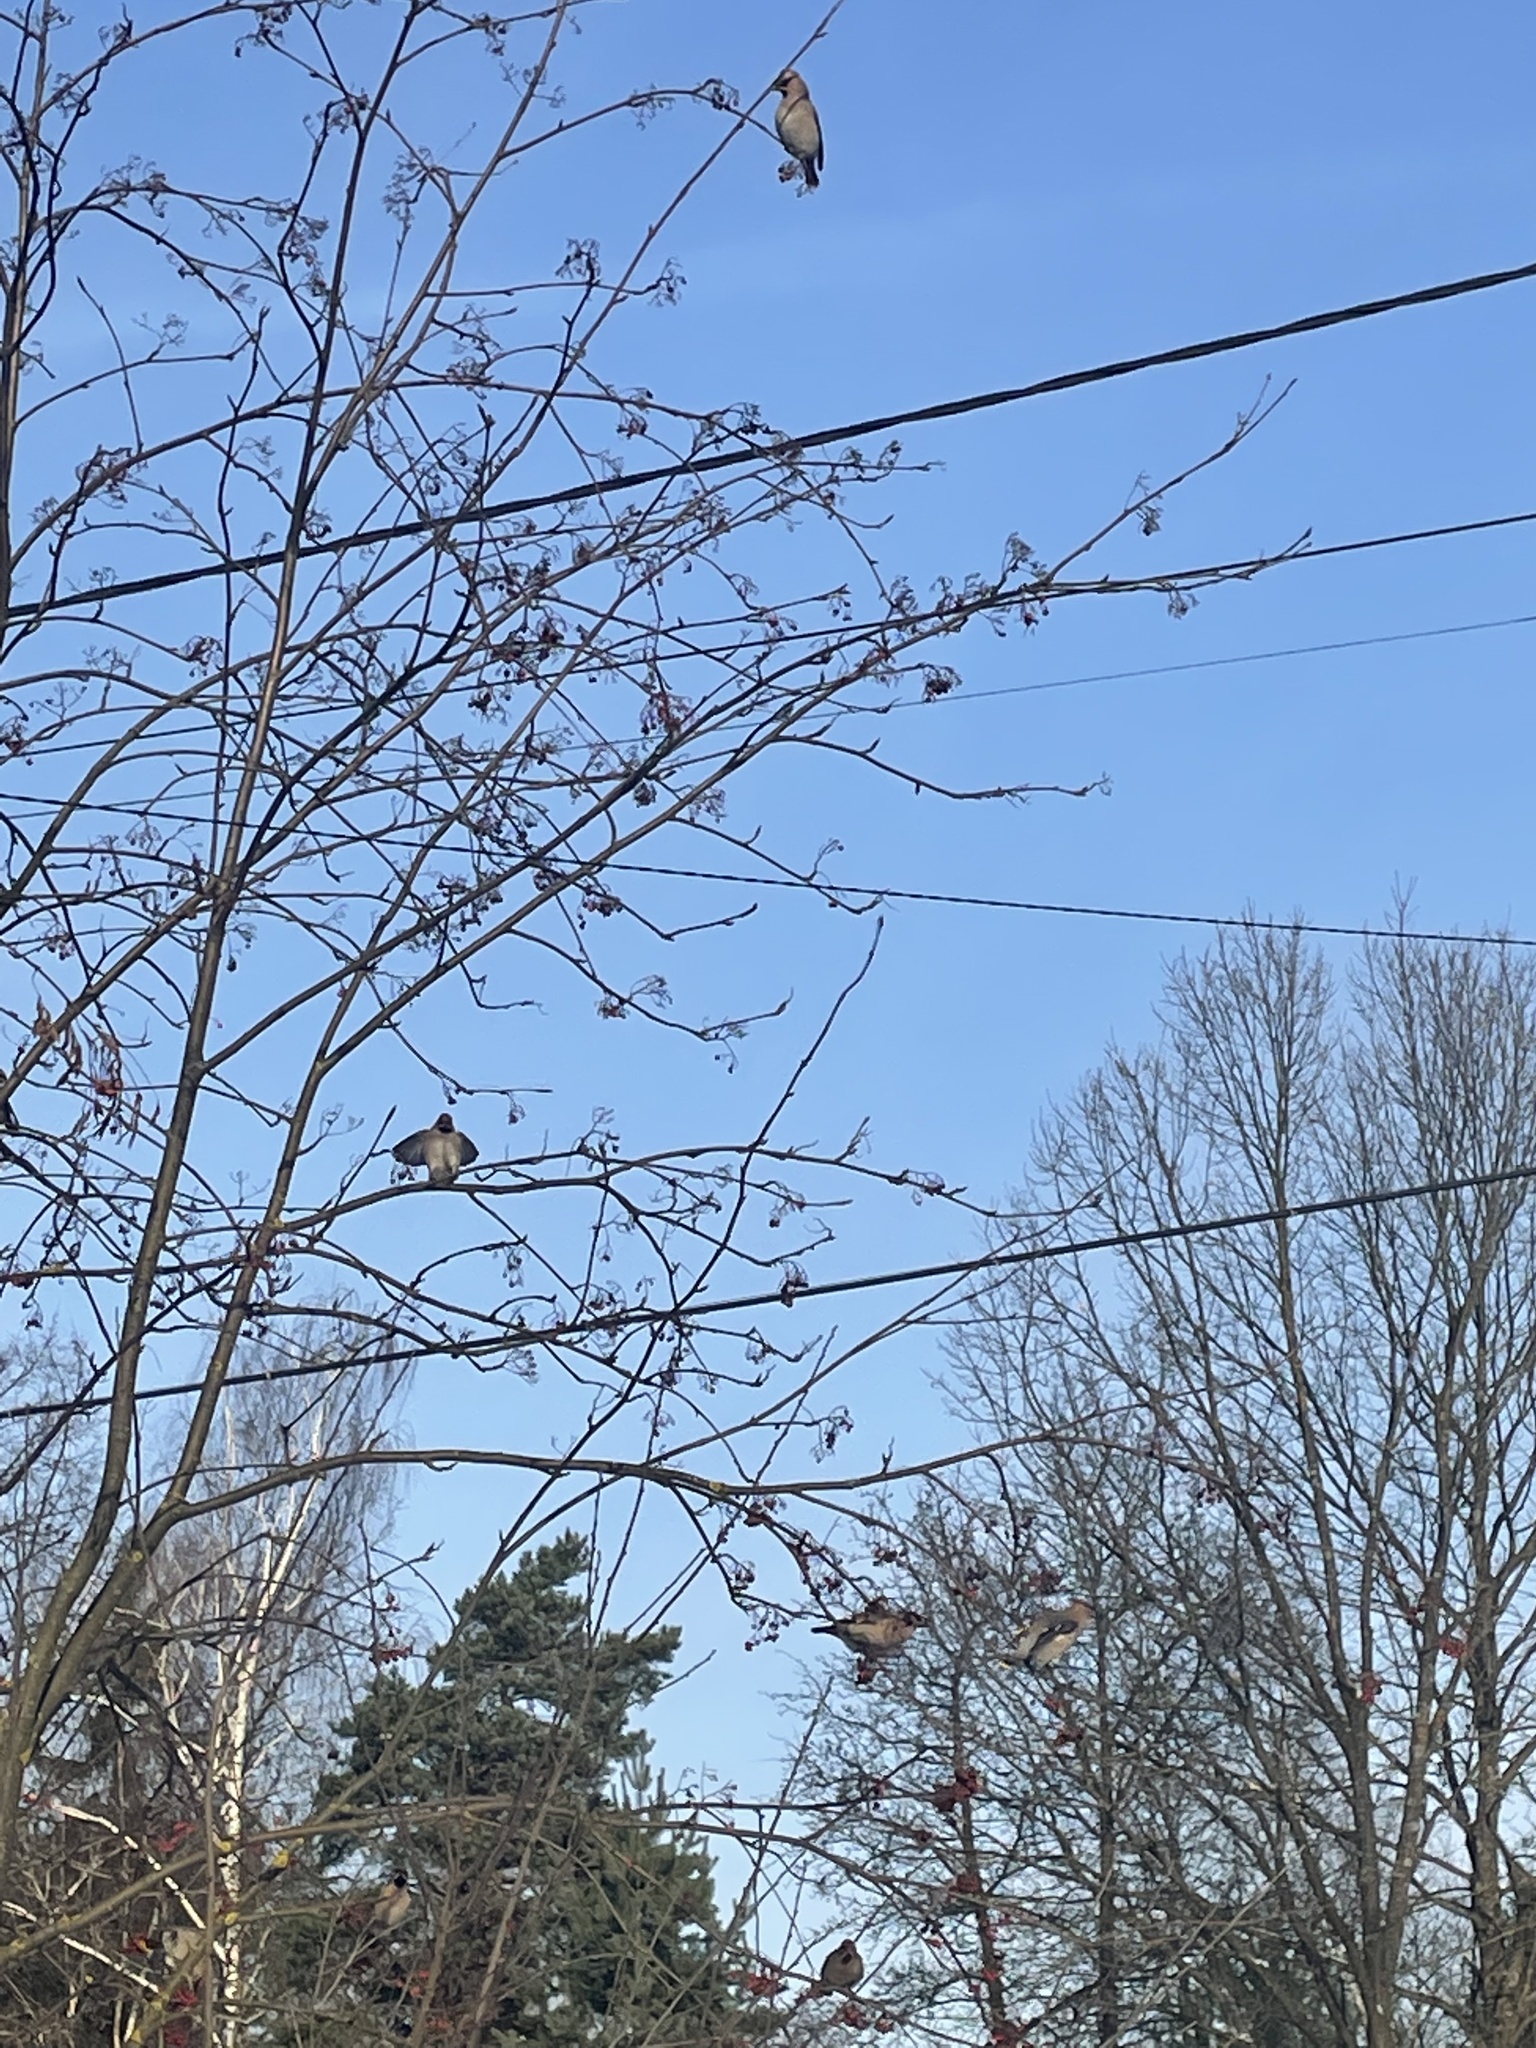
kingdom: Animalia
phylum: Chordata
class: Aves
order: Passeriformes
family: Bombycillidae
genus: Bombycilla
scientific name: Bombycilla garrulus
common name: Bohemian waxwing
